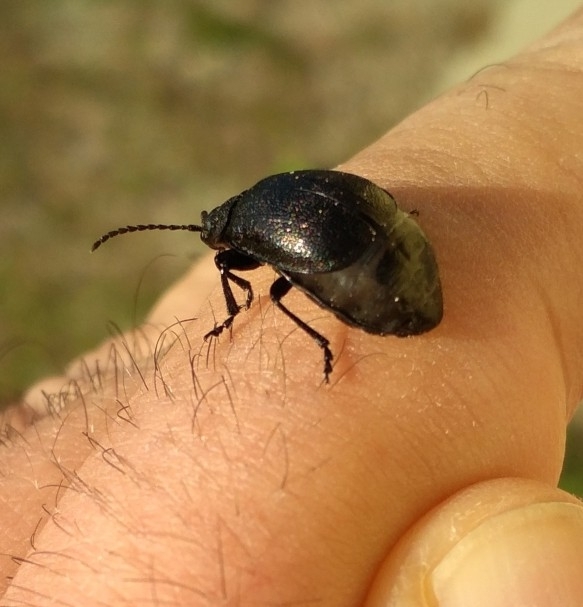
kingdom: Animalia
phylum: Arthropoda
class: Insecta
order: Coleoptera
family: Chrysomelidae
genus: Galeruca
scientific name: Galeruca tanaceti
